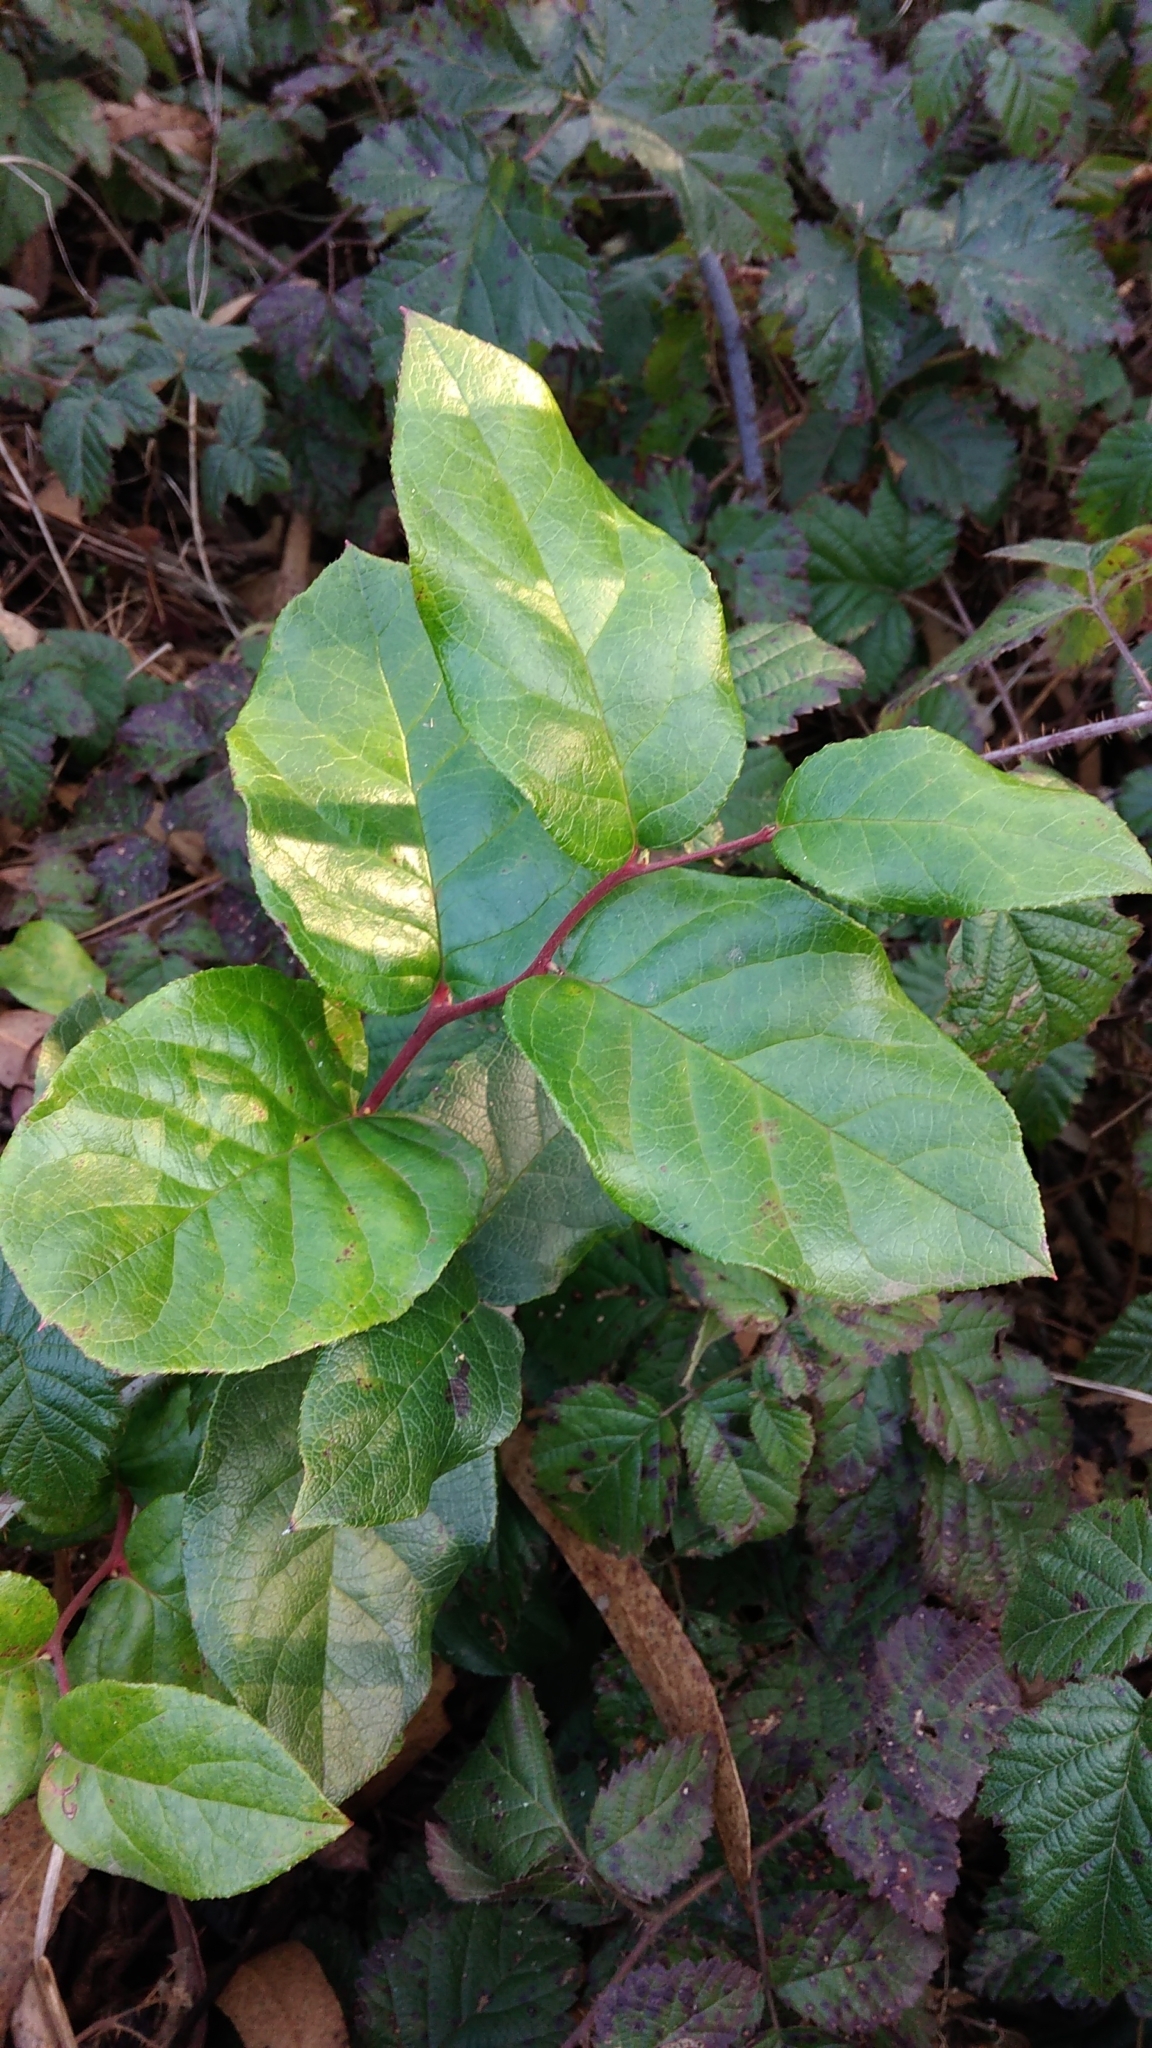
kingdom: Plantae
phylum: Tracheophyta
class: Magnoliopsida
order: Ericales
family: Ericaceae
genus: Gaultheria
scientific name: Gaultheria shallon
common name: Shallon
